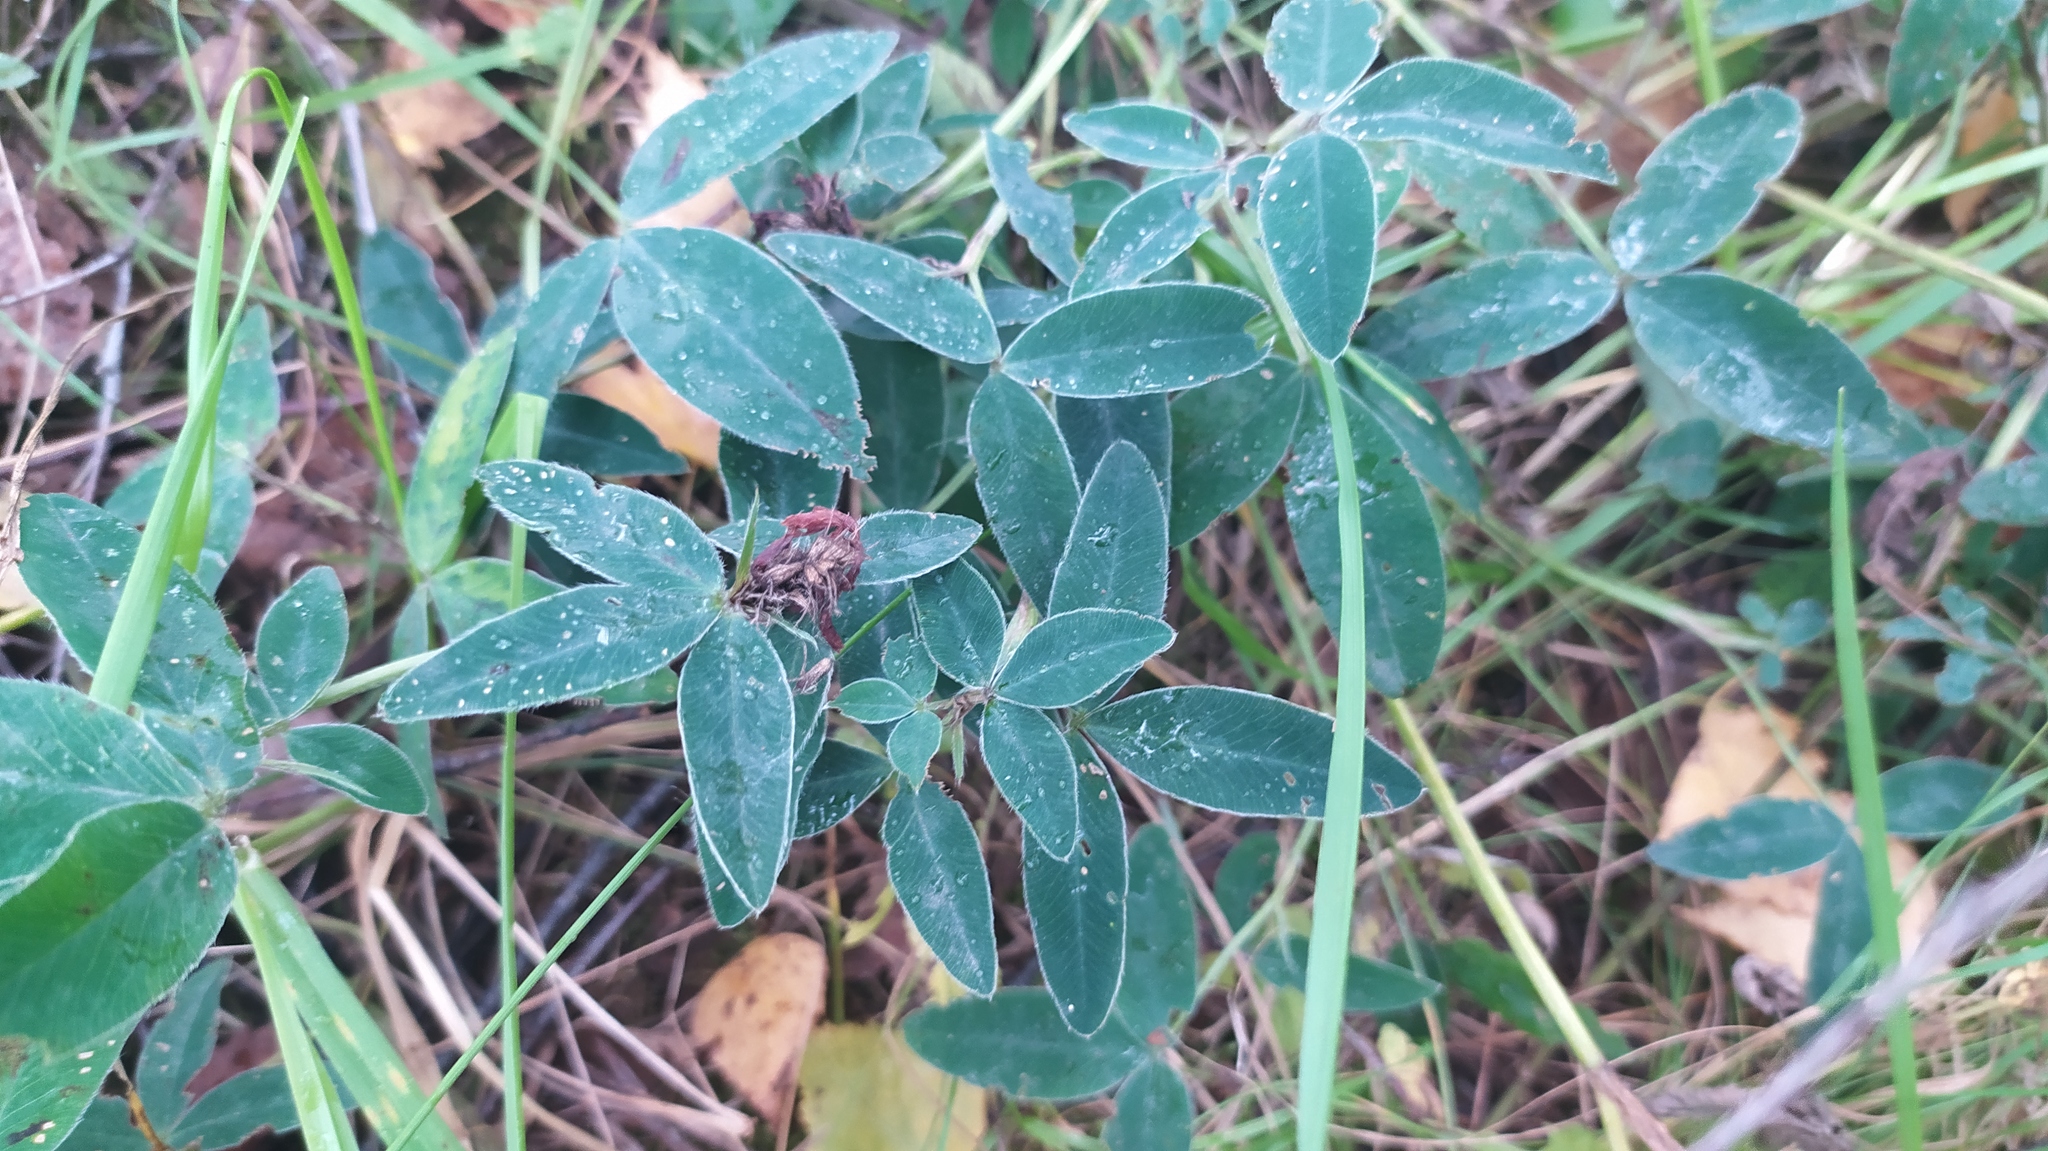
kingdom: Plantae
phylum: Tracheophyta
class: Magnoliopsida
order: Fabales
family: Fabaceae
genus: Trifolium
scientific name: Trifolium medium
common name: Zigzag clover
